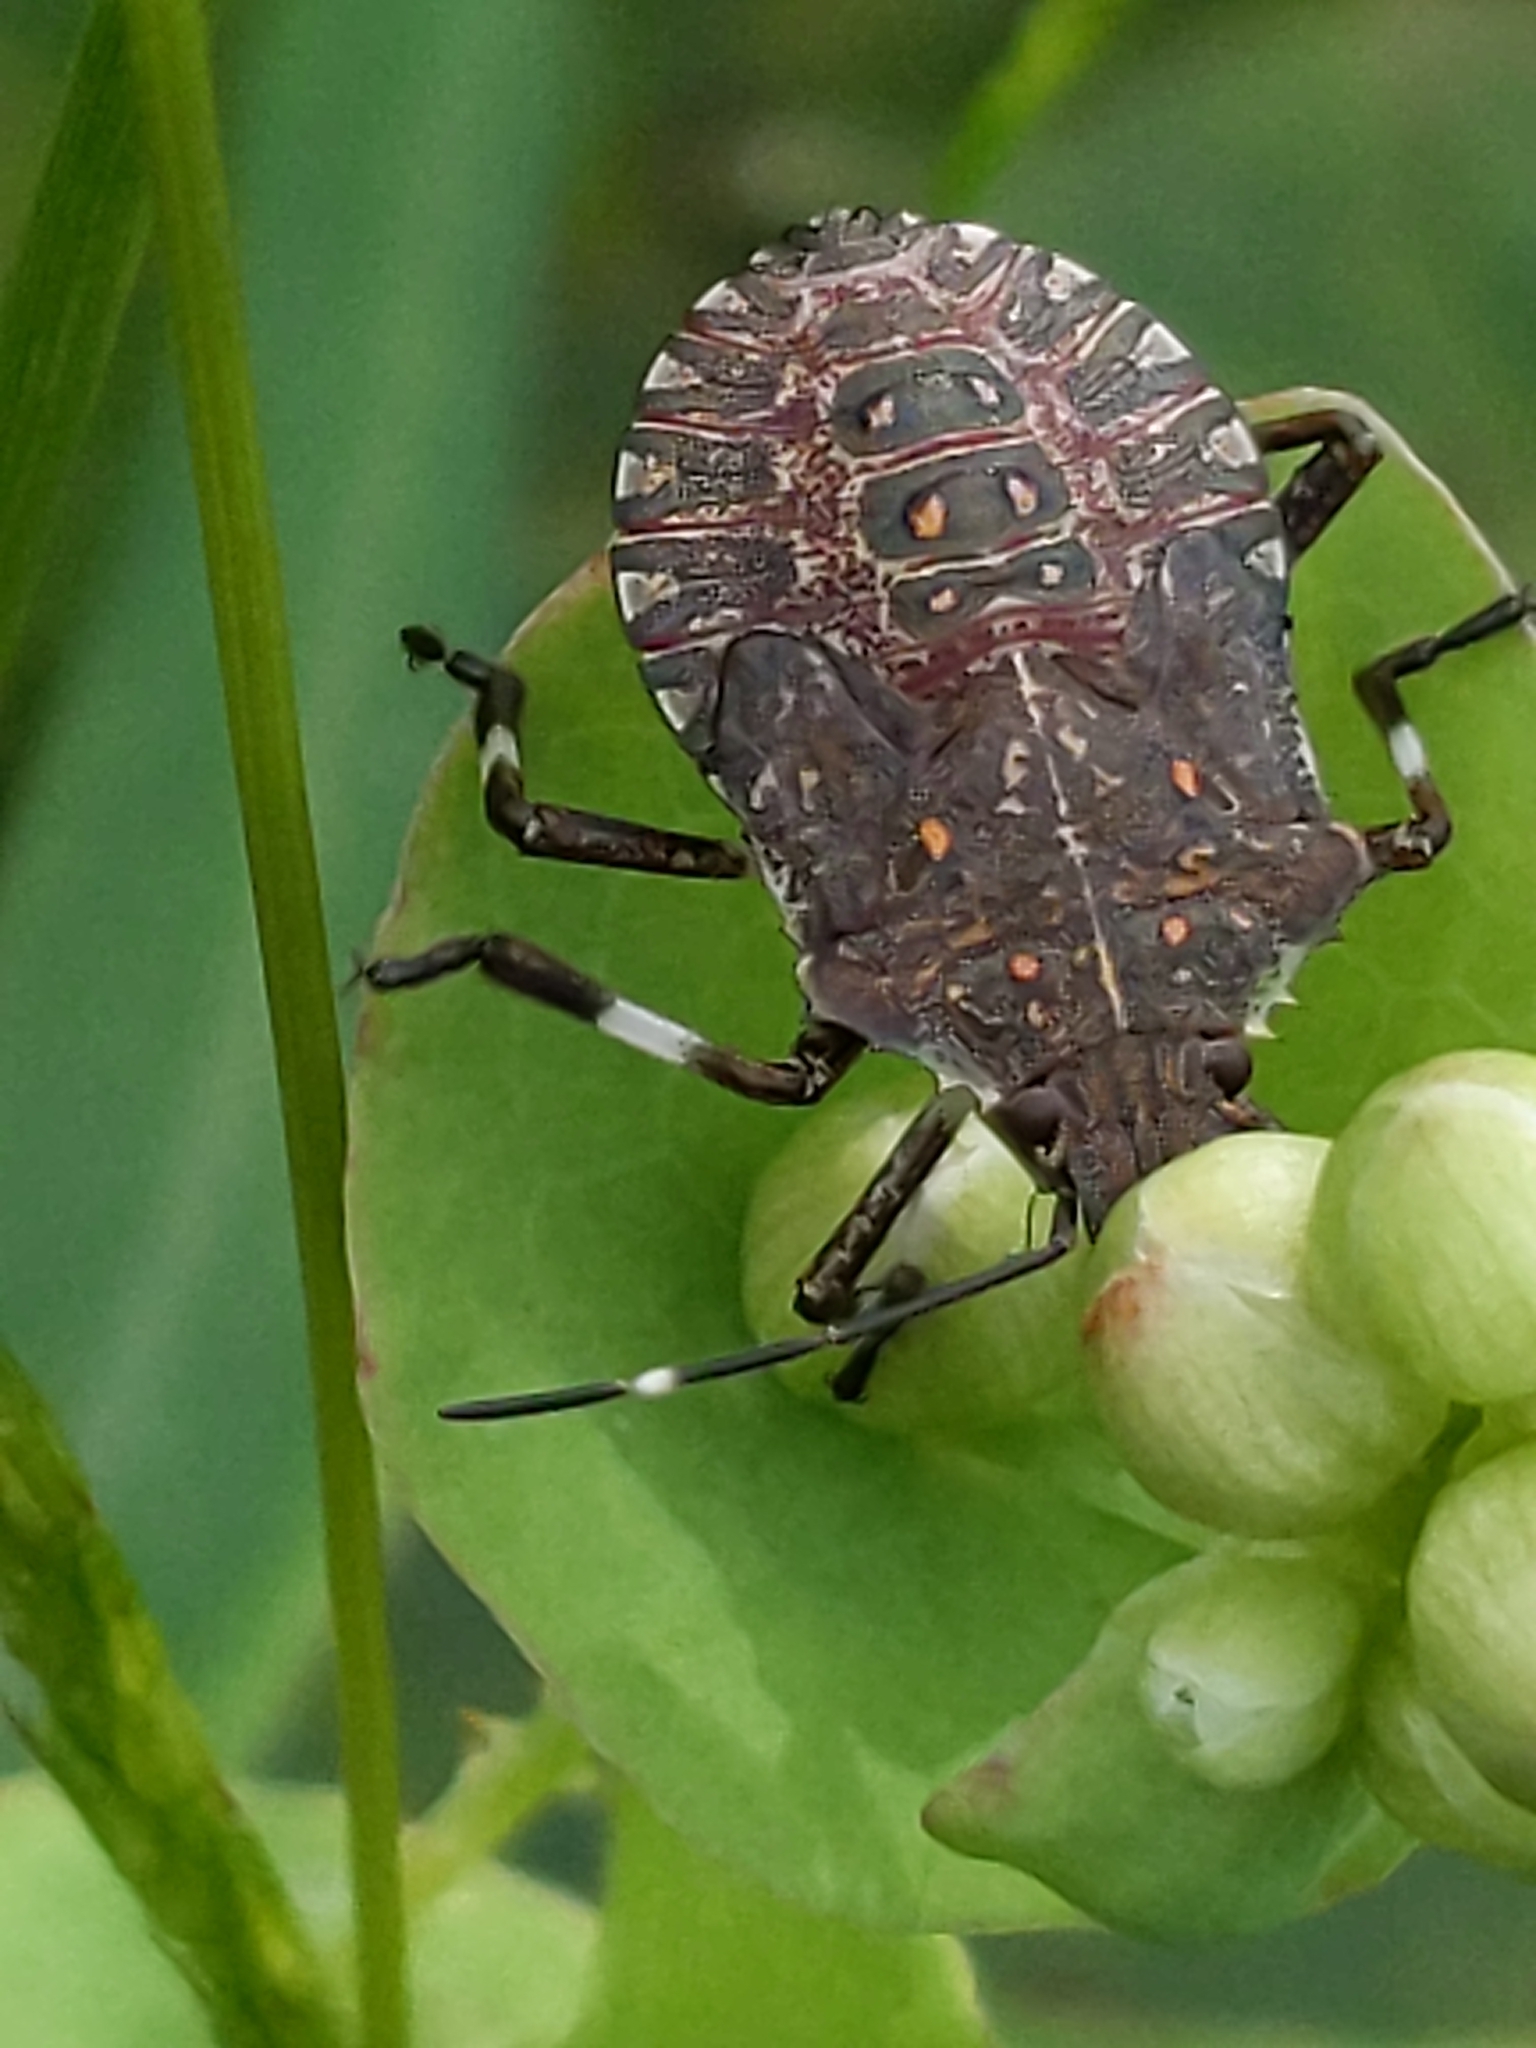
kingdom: Animalia
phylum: Arthropoda
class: Insecta
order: Hemiptera
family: Pentatomidae
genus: Halyomorpha
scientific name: Halyomorpha halys
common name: Brown marmorated stink bug
